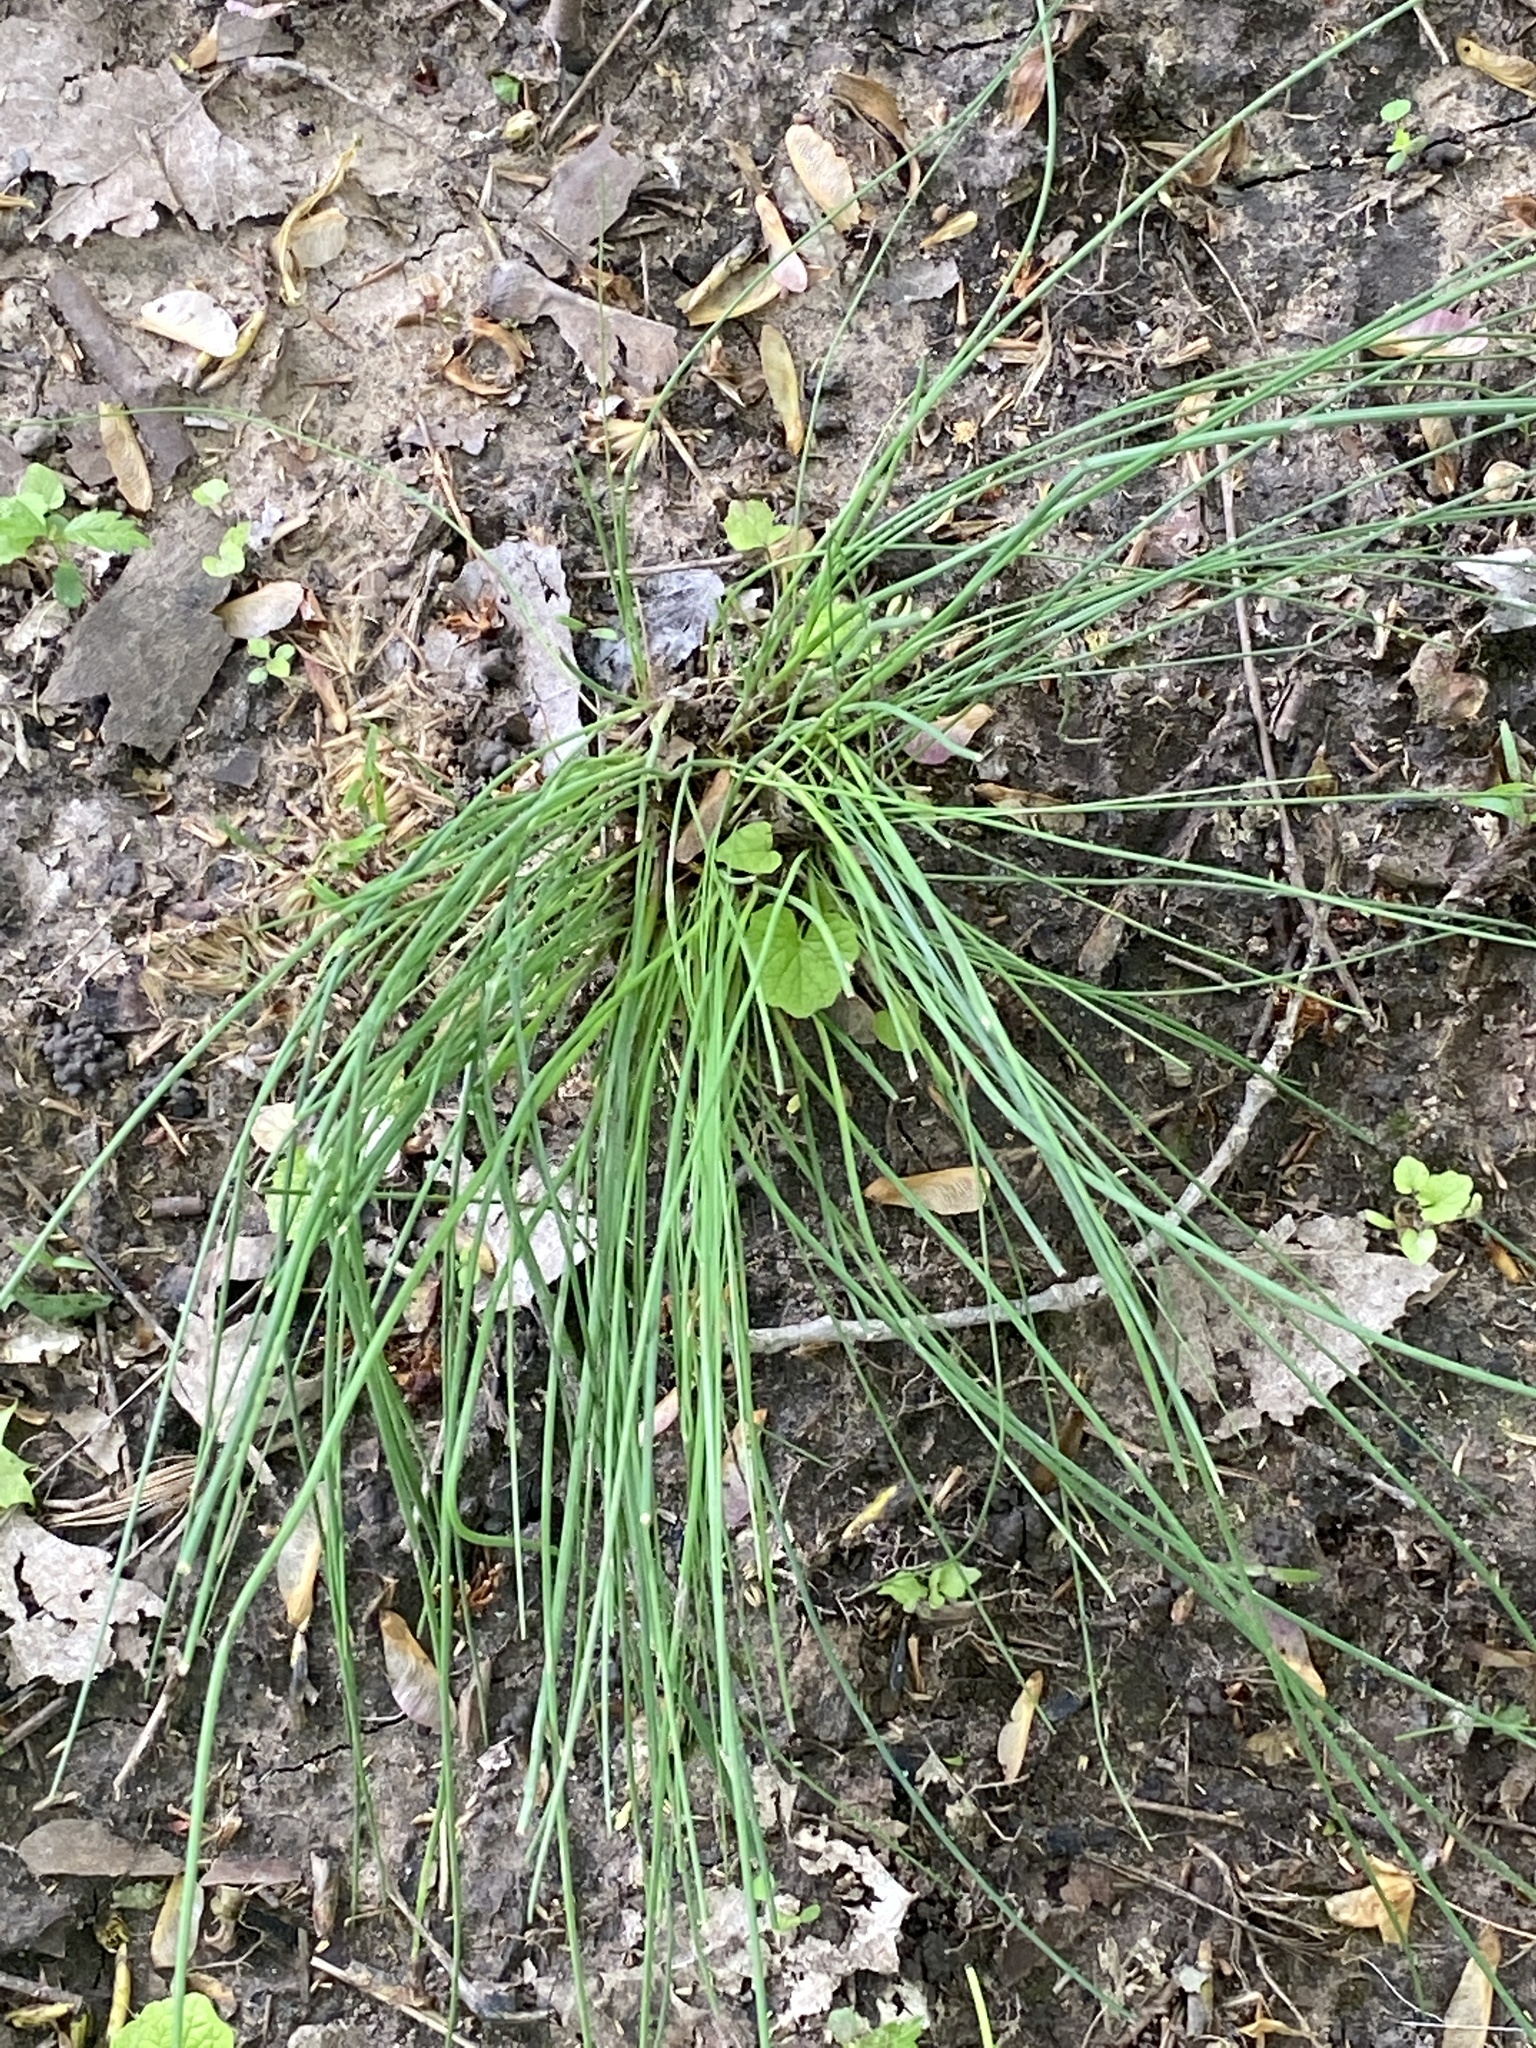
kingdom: Plantae
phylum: Tracheophyta
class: Liliopsida
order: Asparagales
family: Amaryllidaceae
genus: Allium
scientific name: Allium vineale
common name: Crow garlic
